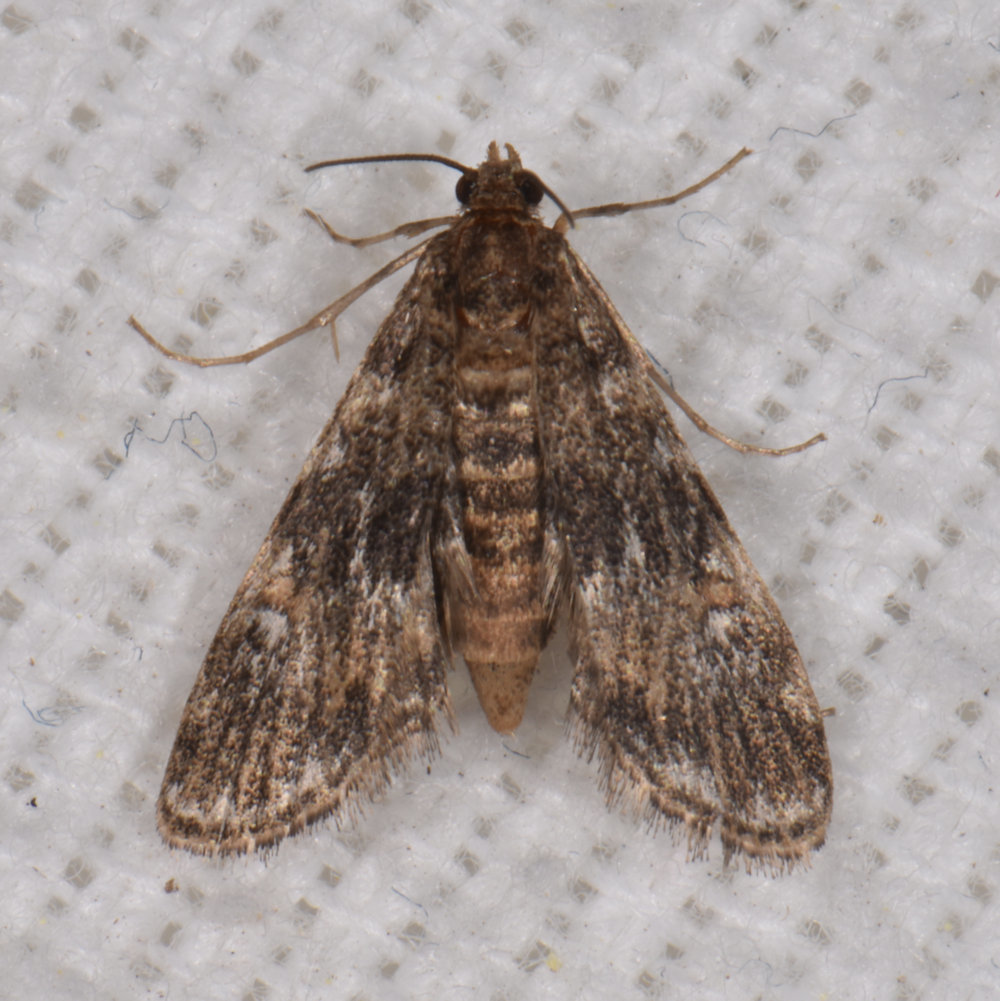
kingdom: Animalia
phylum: Arthropoda
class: Insecta
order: Lepidoptera
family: Crambidae
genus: Elophila
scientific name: Elophila obliteralis
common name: Waterlily leafcutter moth
